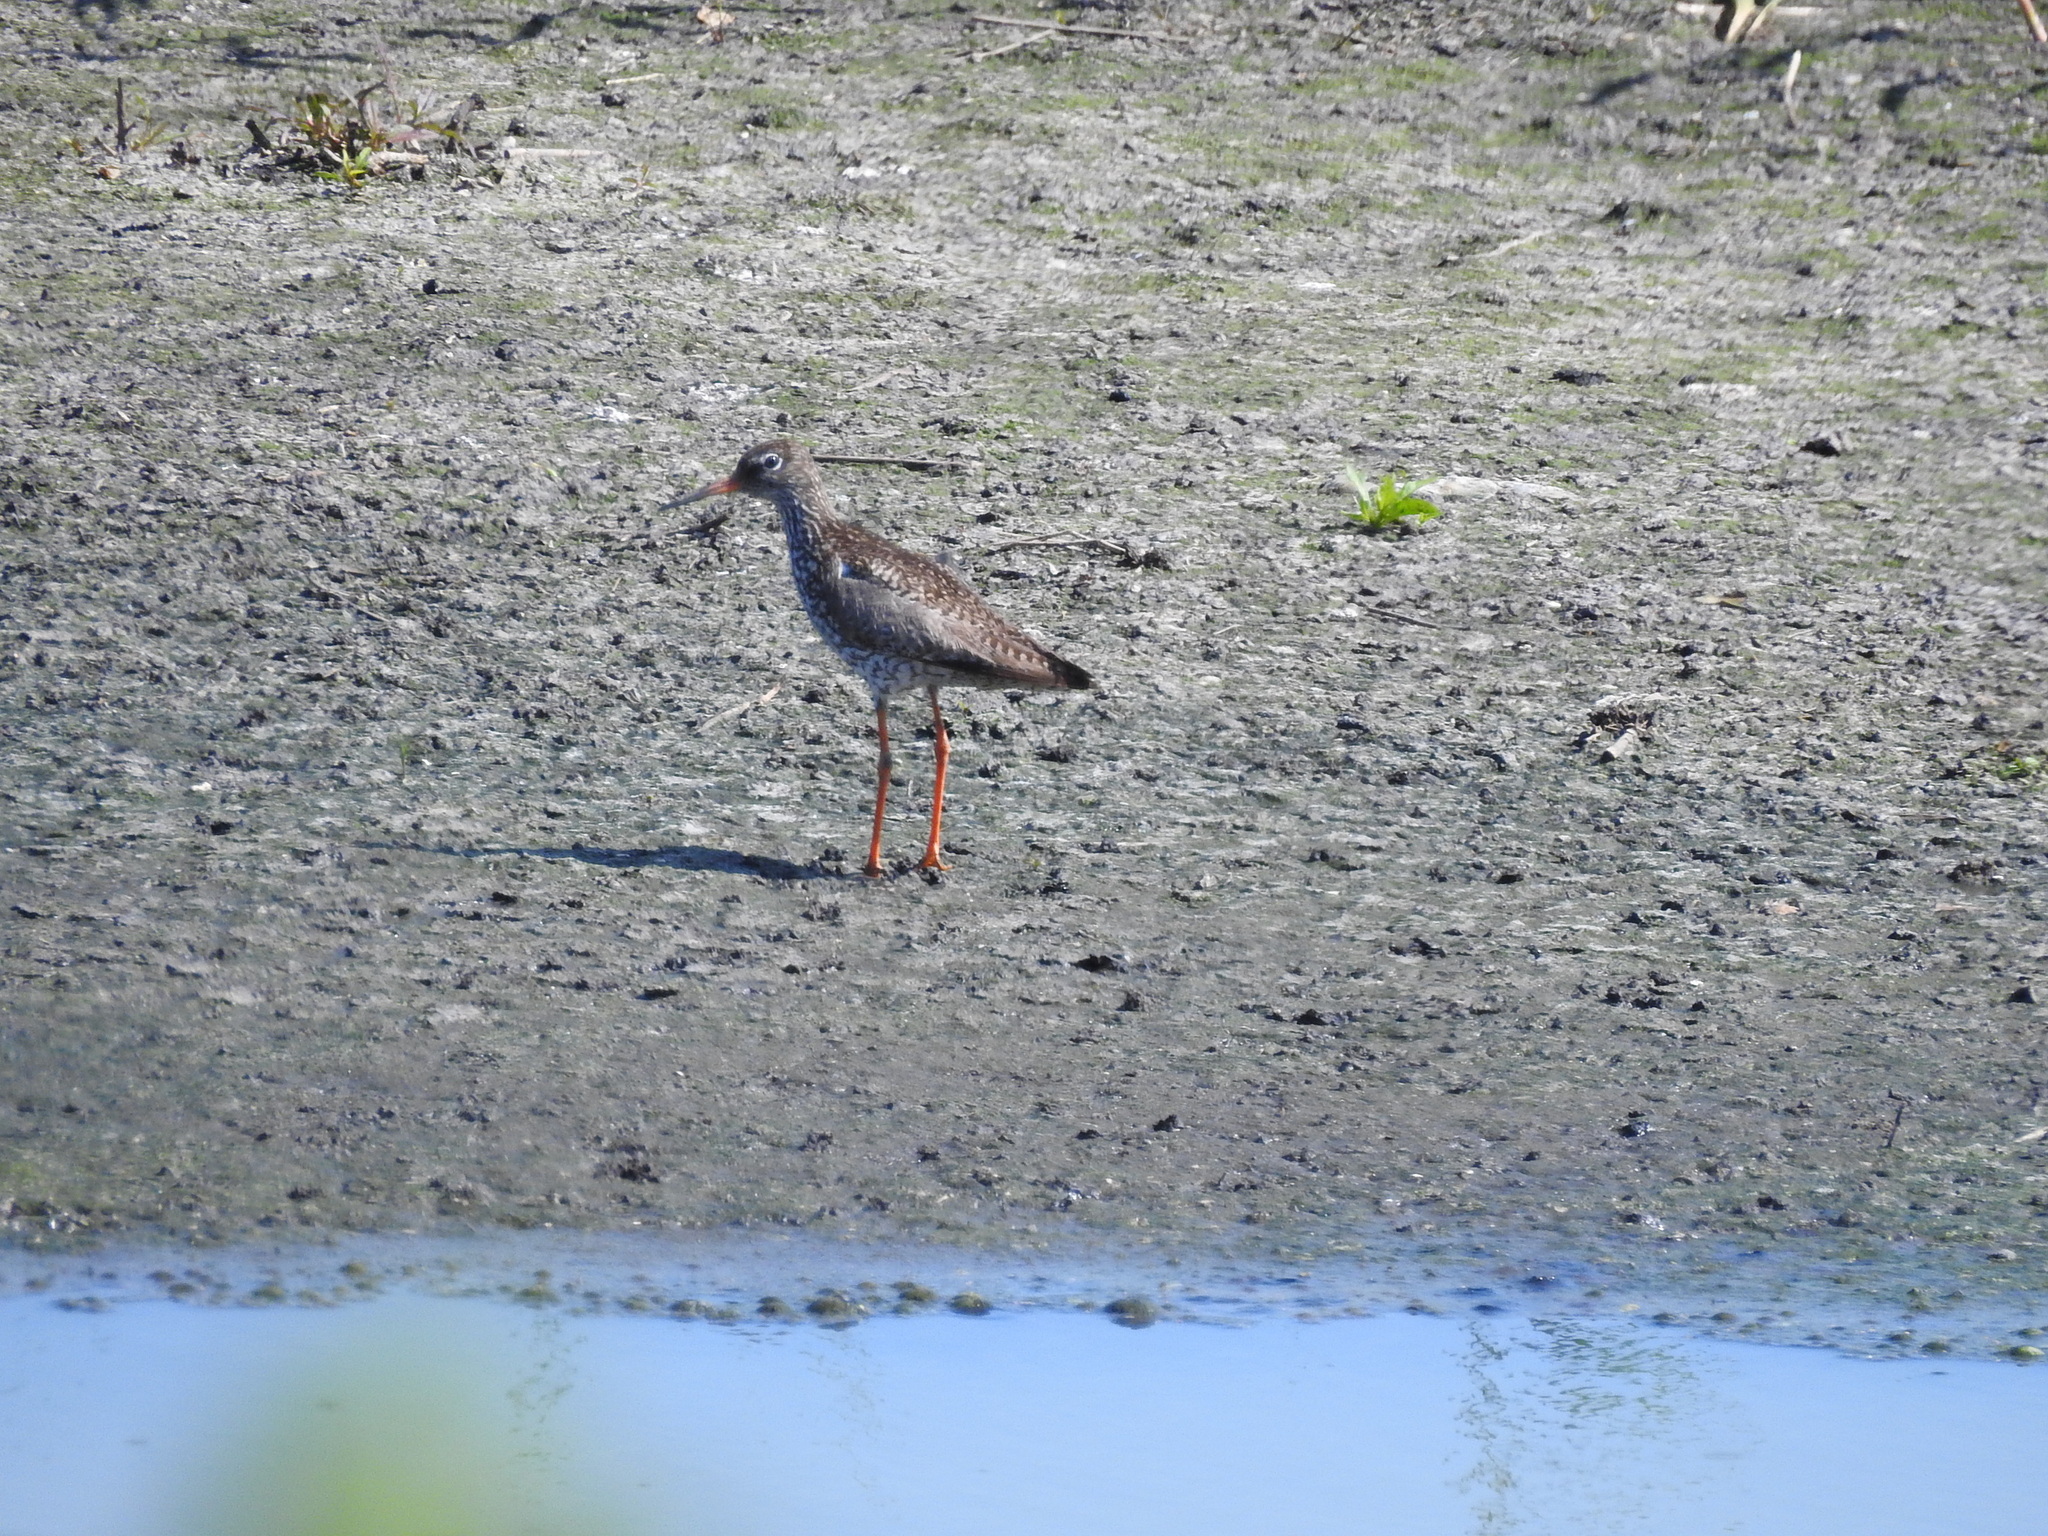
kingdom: Animalia
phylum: Chordata
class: Aves
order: Charadriiformes
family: Scolopacidae
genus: Tringa
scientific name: Tringa totanus
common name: Common redshank
